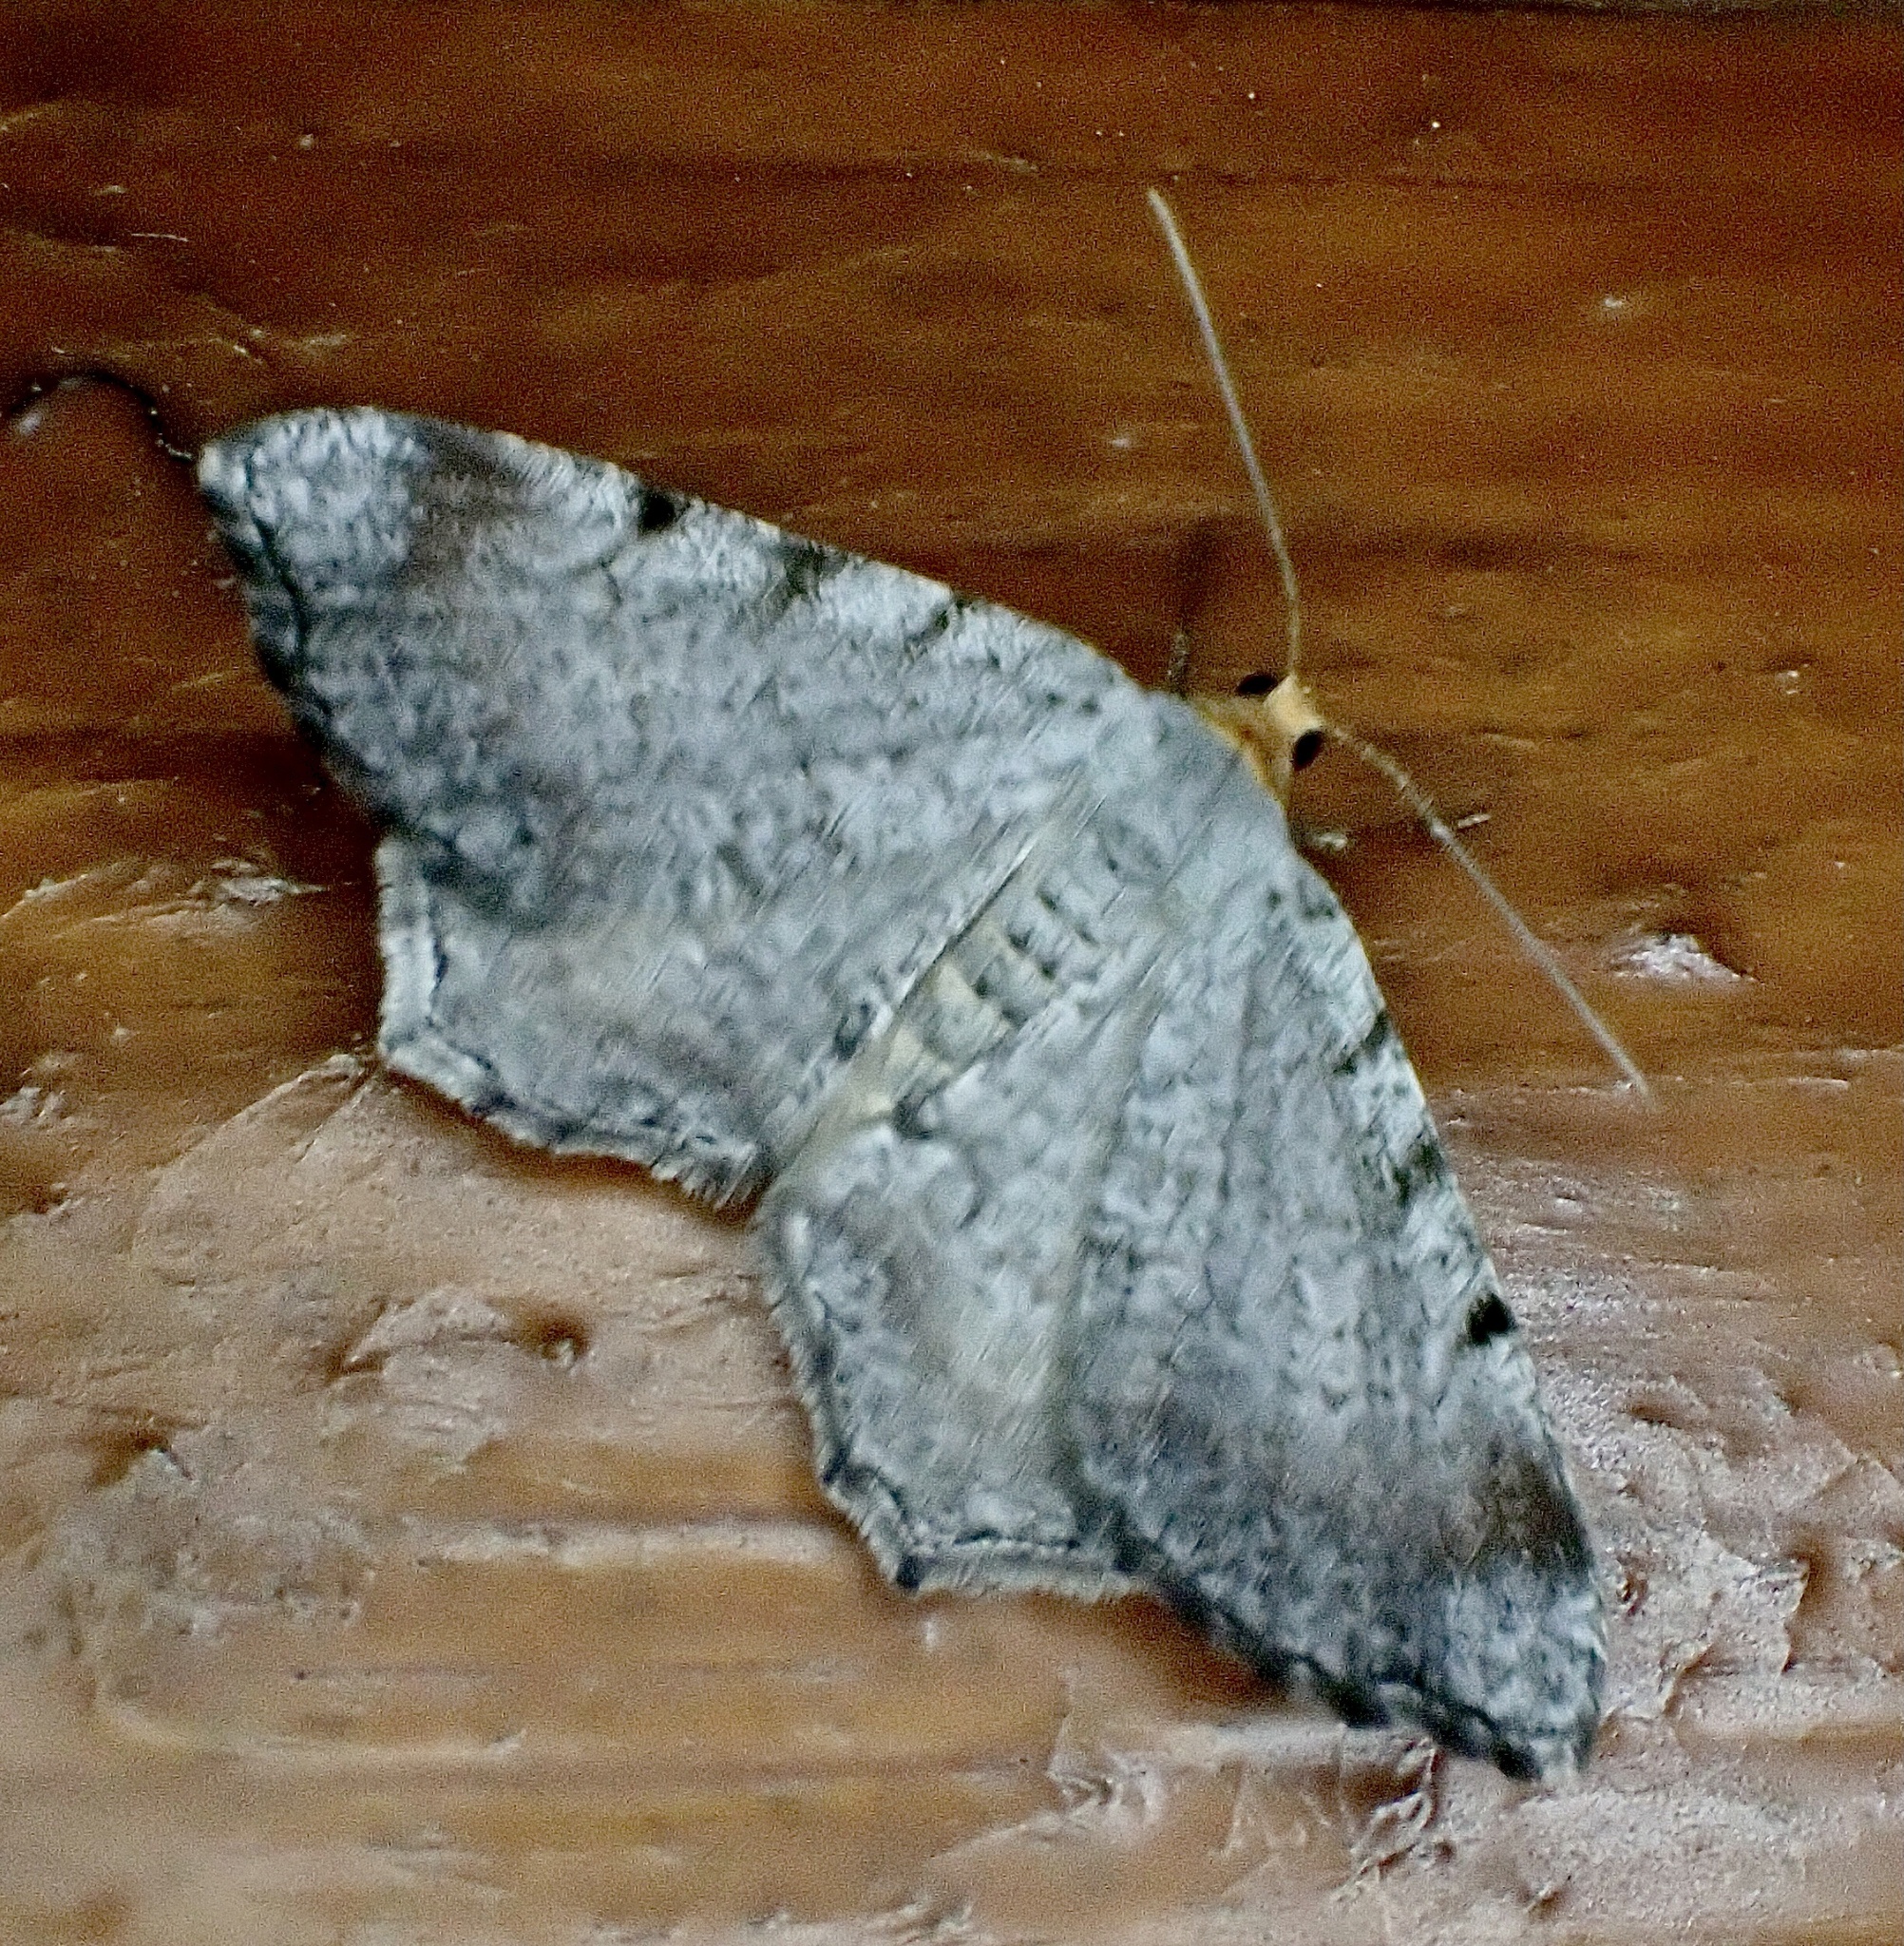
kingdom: Animalia
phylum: Arthropoda
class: Insecta
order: Lepidoptera
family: Geometridae
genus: Macaria
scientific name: Macaria minorata
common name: Minor angle moth
